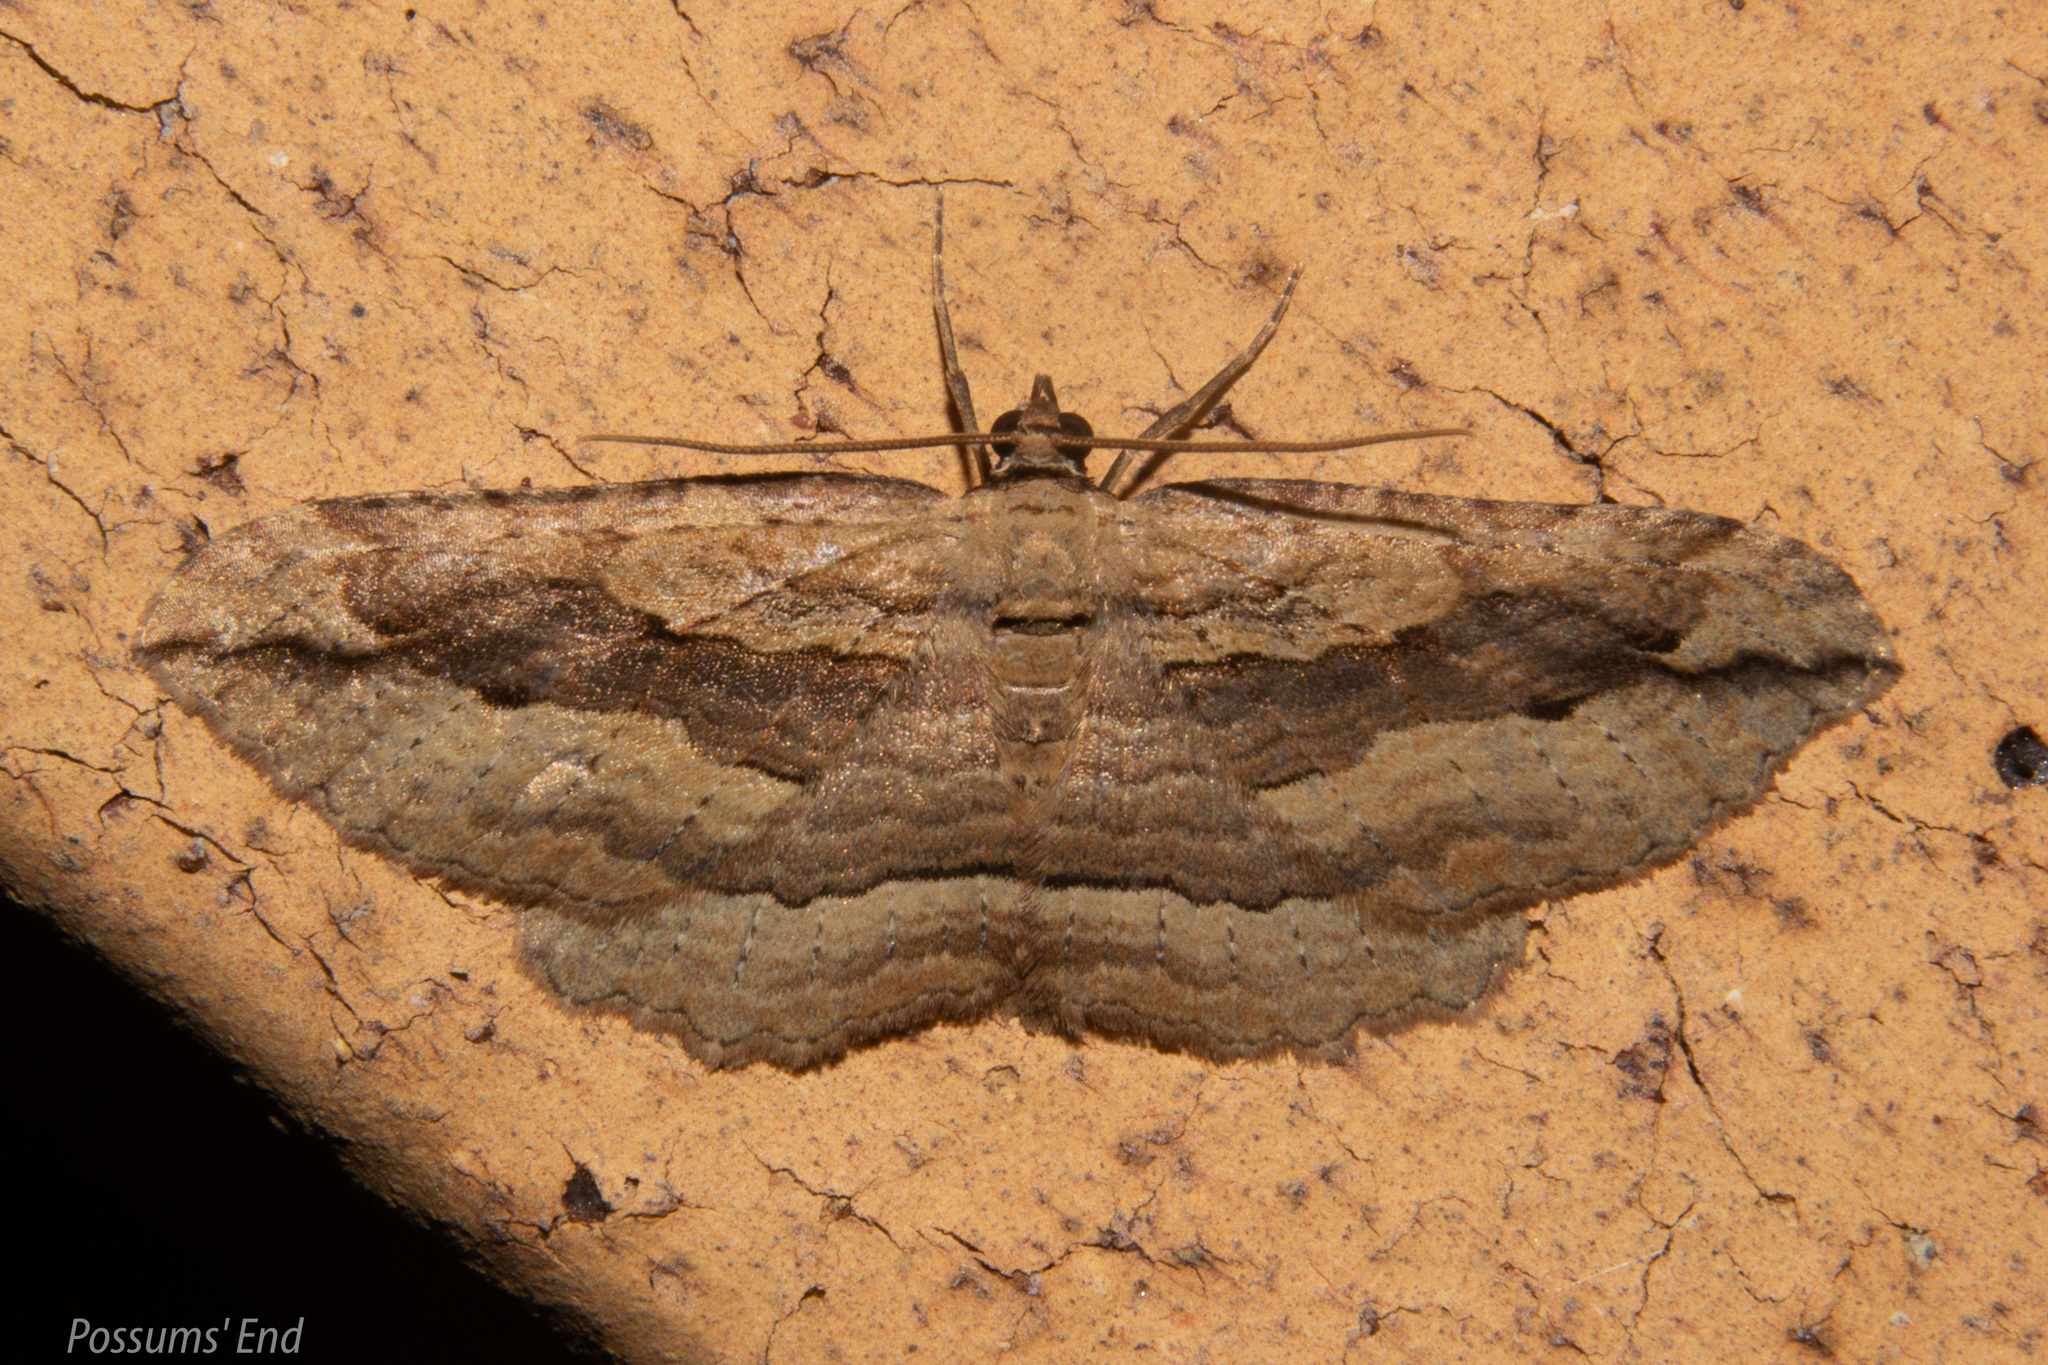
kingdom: Animalia
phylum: Arthropoda
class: Insecta
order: Lepidoptera
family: Geometridae
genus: Austrocidaria
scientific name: Austrocidaria gobiata
